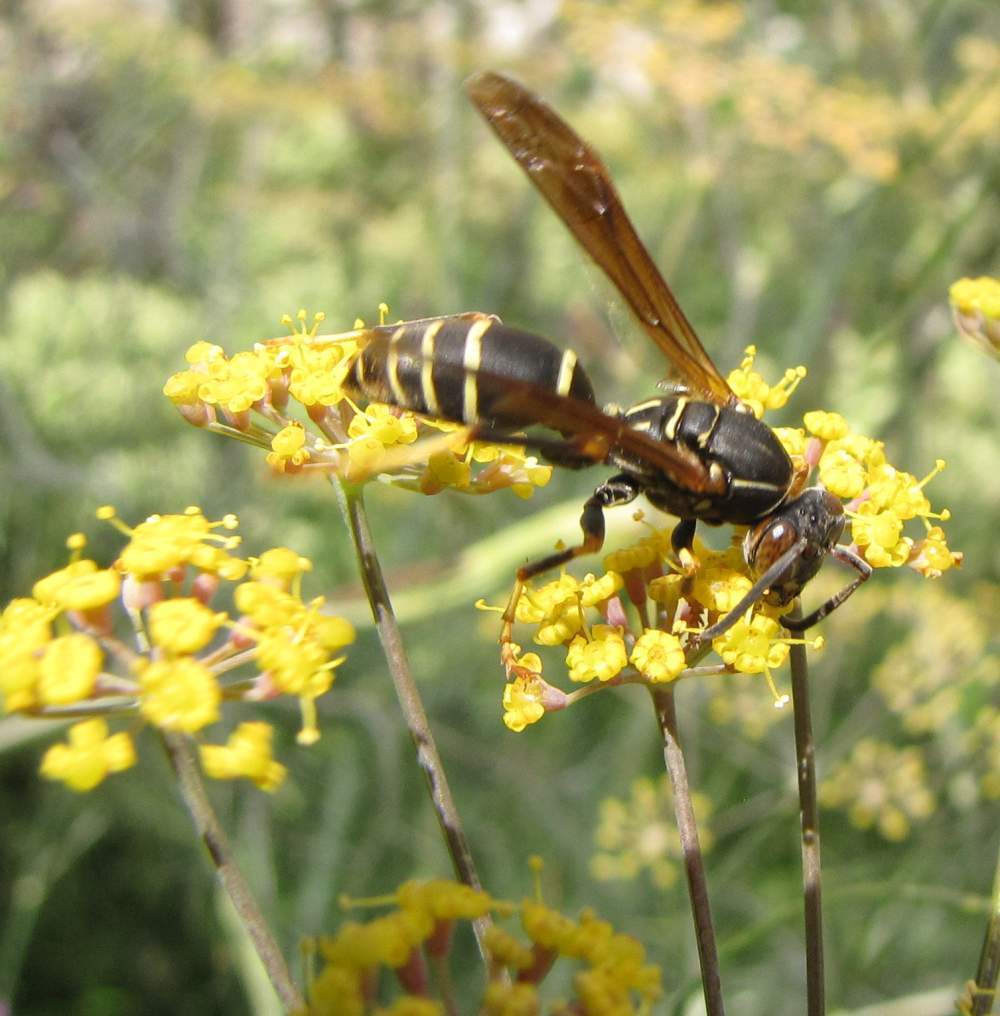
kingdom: Animalia
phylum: Arthropoda
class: Insecta
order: Hymenoptera
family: Eumenidae
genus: Polistes
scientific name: Polistes fuscatus
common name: Dark paper wasp
